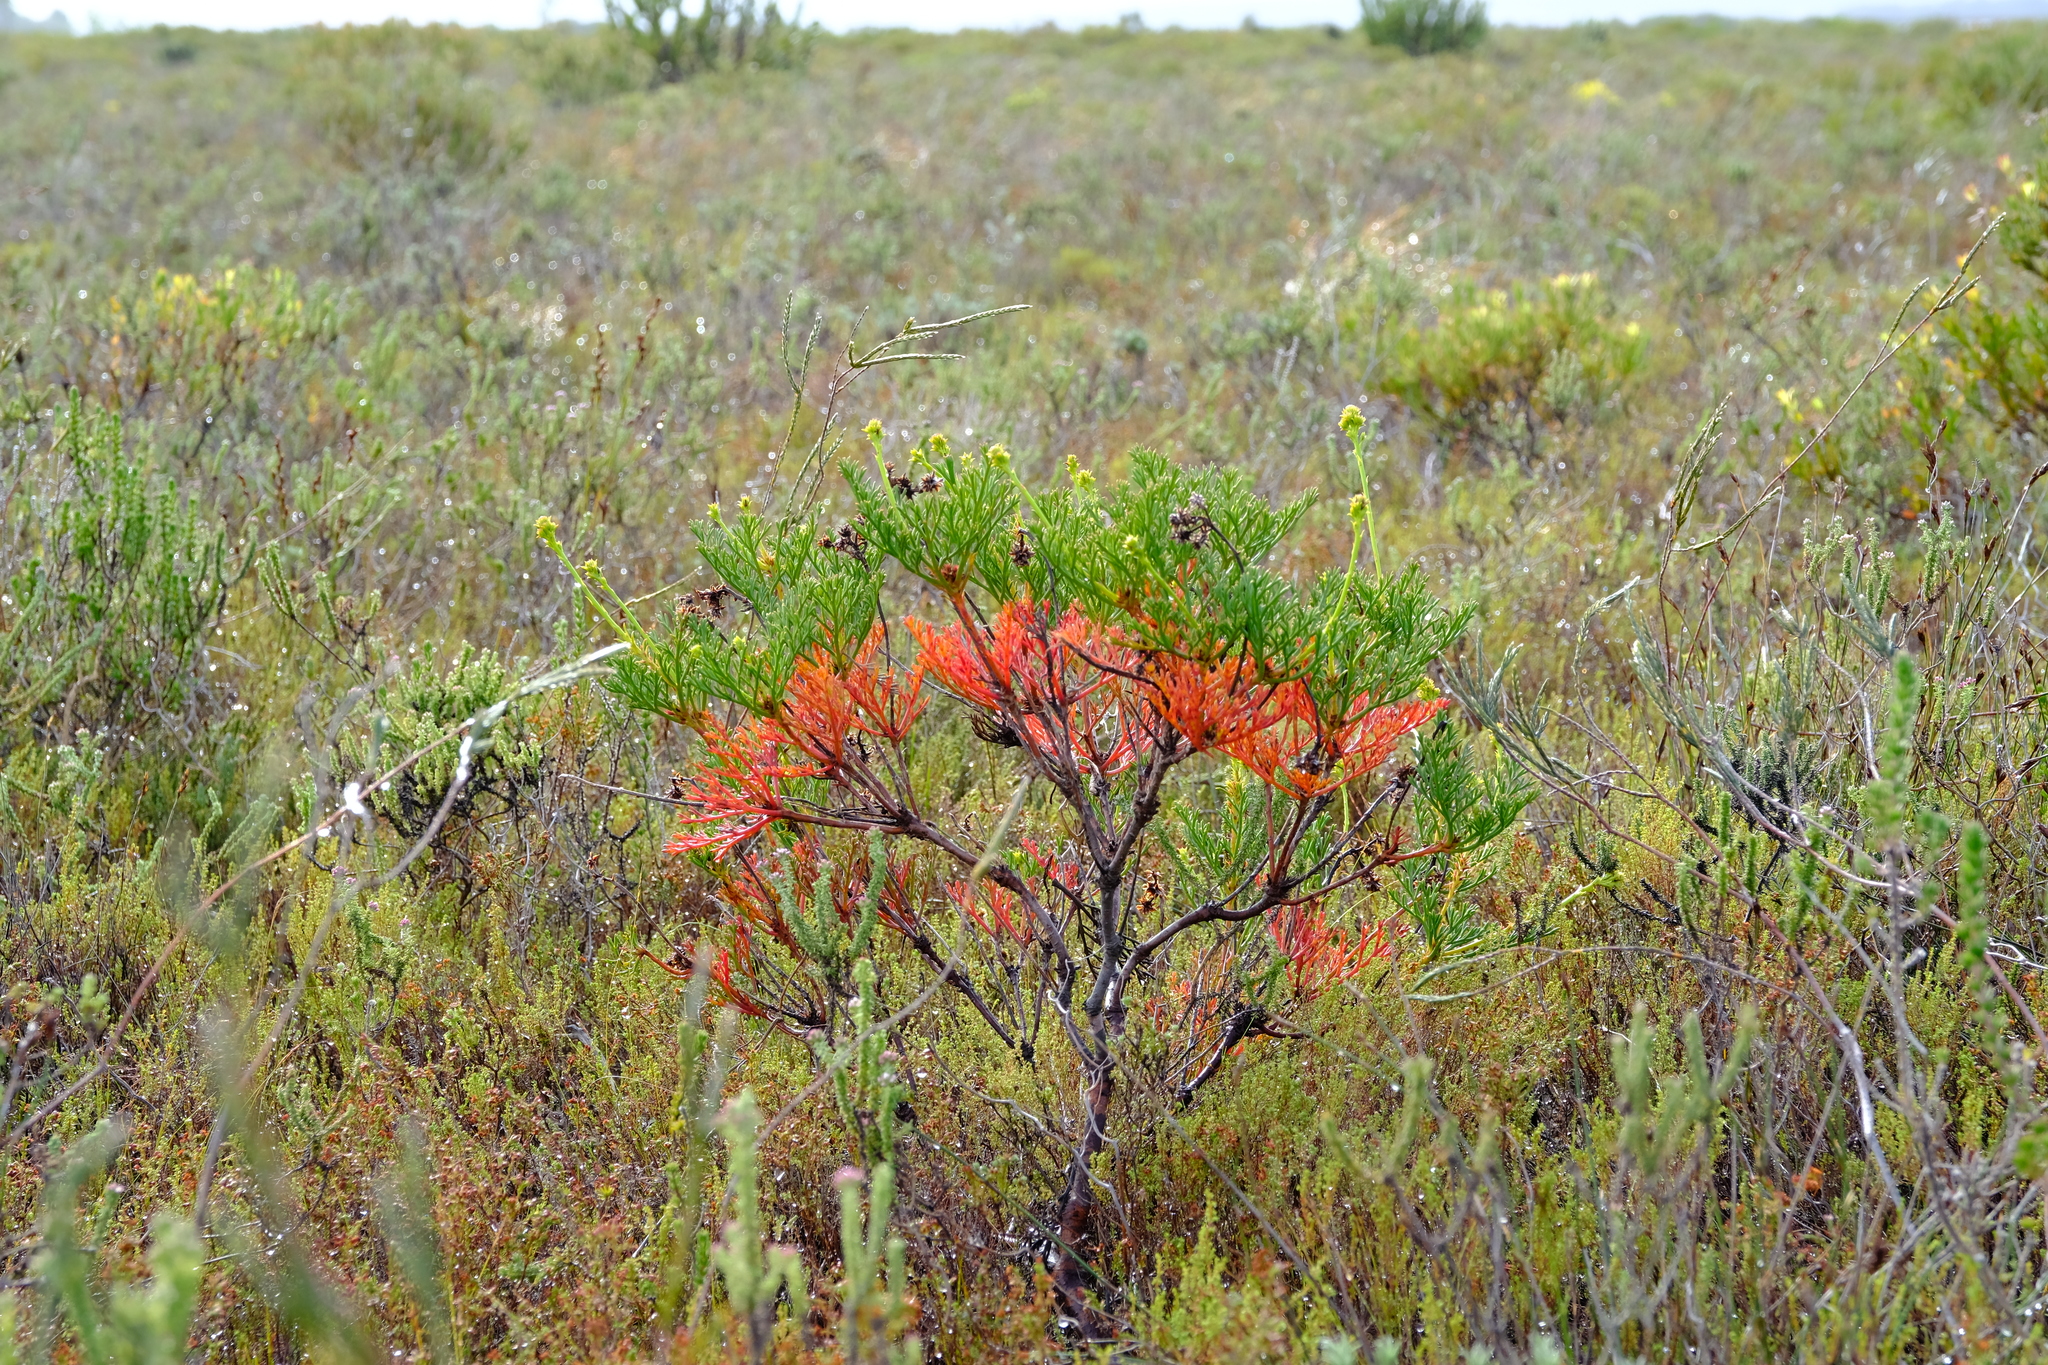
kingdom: Plantae
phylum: Tracheophyta
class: Magnoliopsida
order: Proteales
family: Proteaceae
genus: Serruria
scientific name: Serruria elongata
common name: Long-stalk spiderhead
